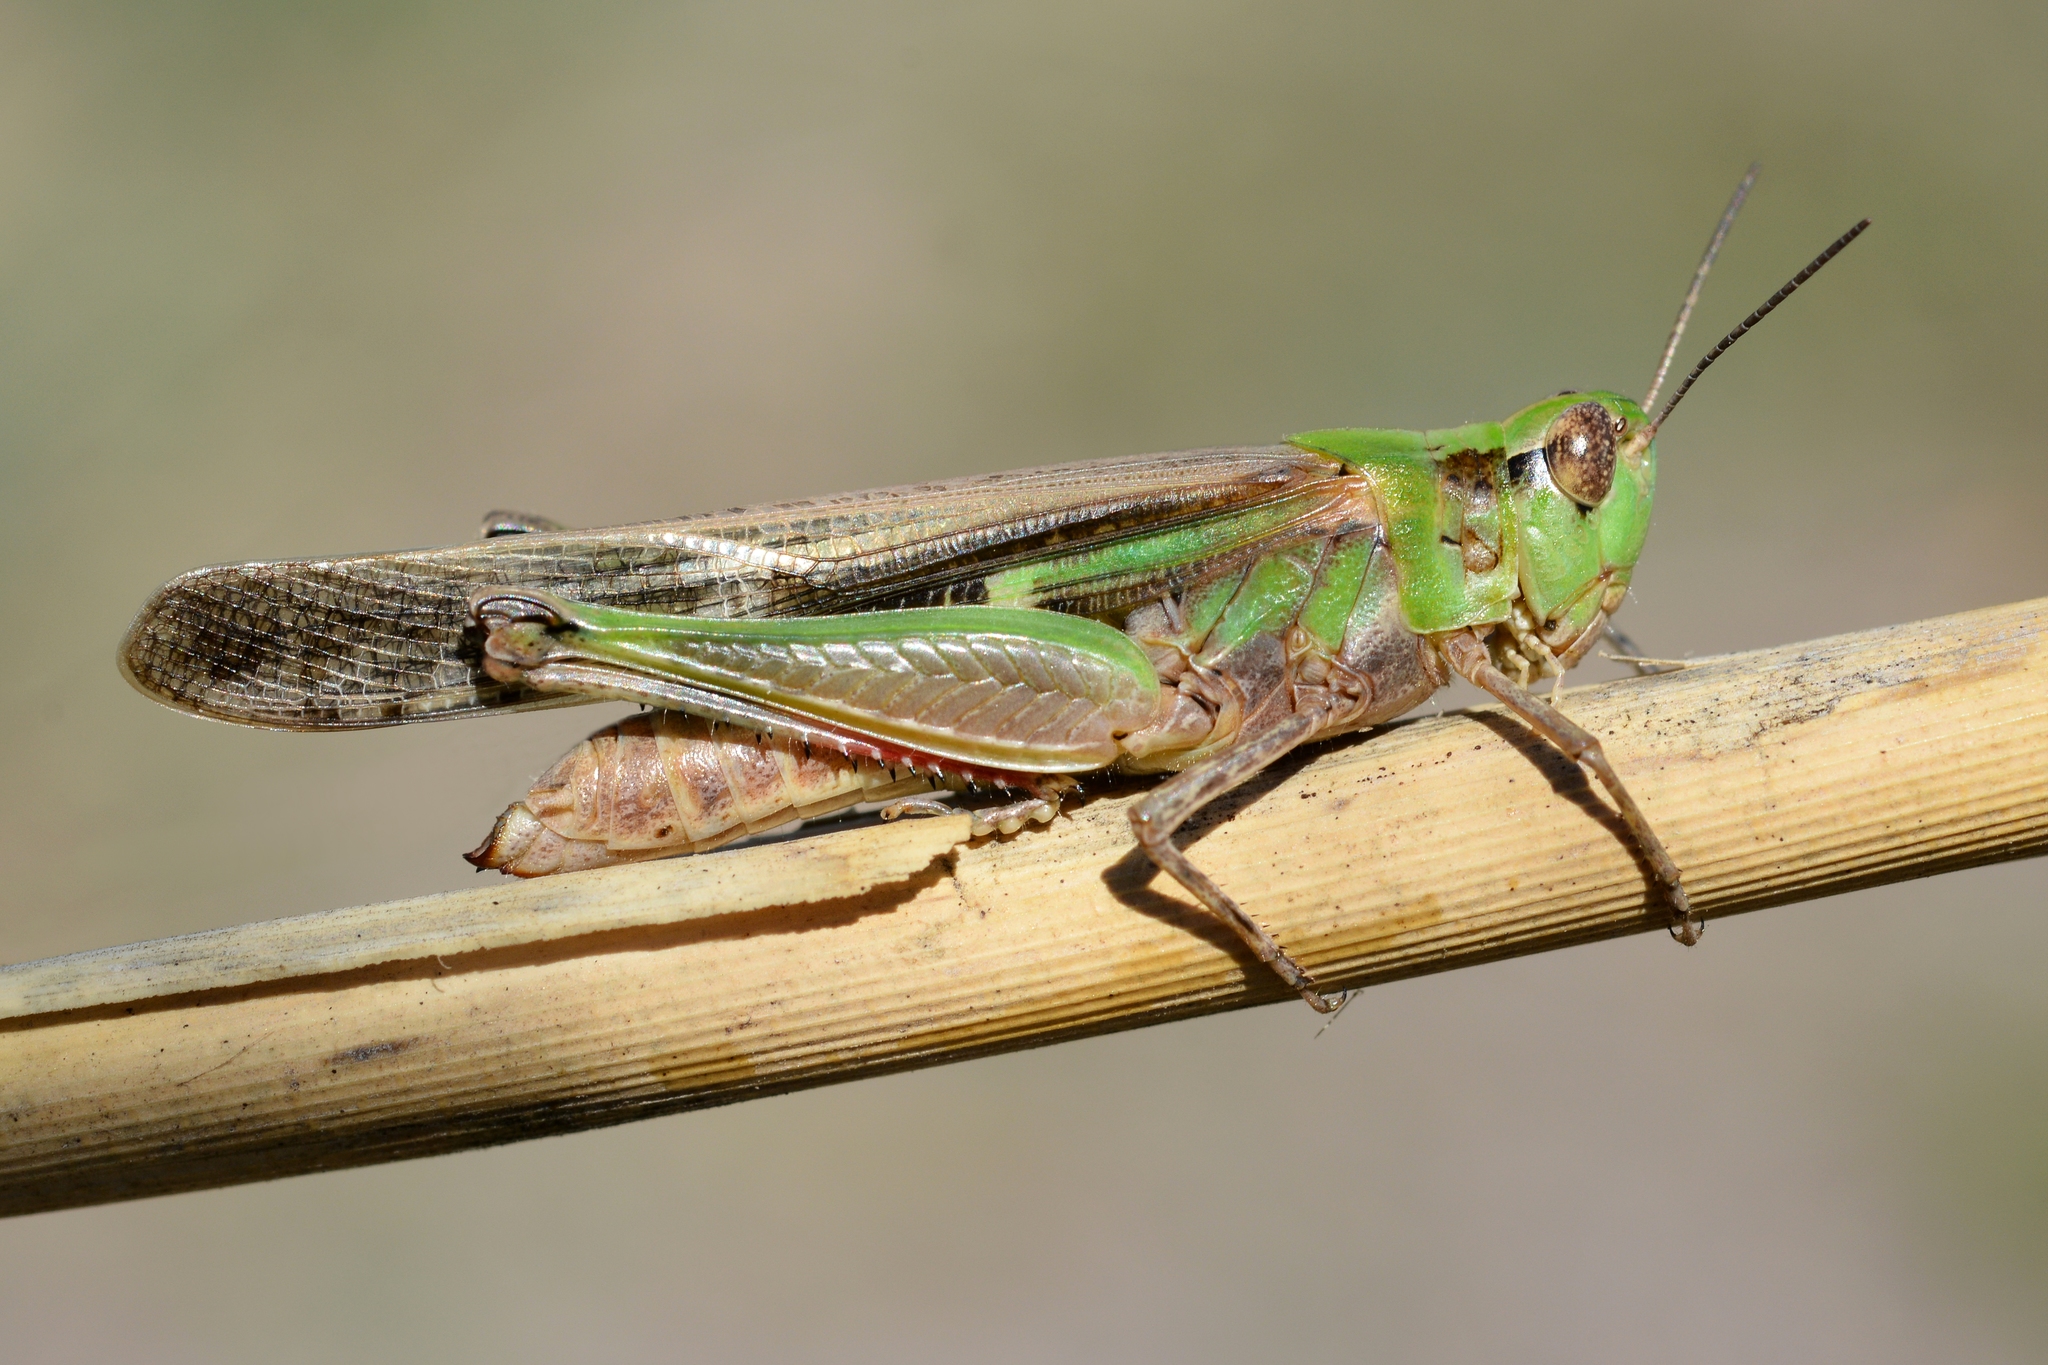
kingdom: Animalia
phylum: Arthropoda
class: Insecta
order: Orthoptera
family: Acrididae
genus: Aiolopus
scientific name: Aiolopus puissanti
